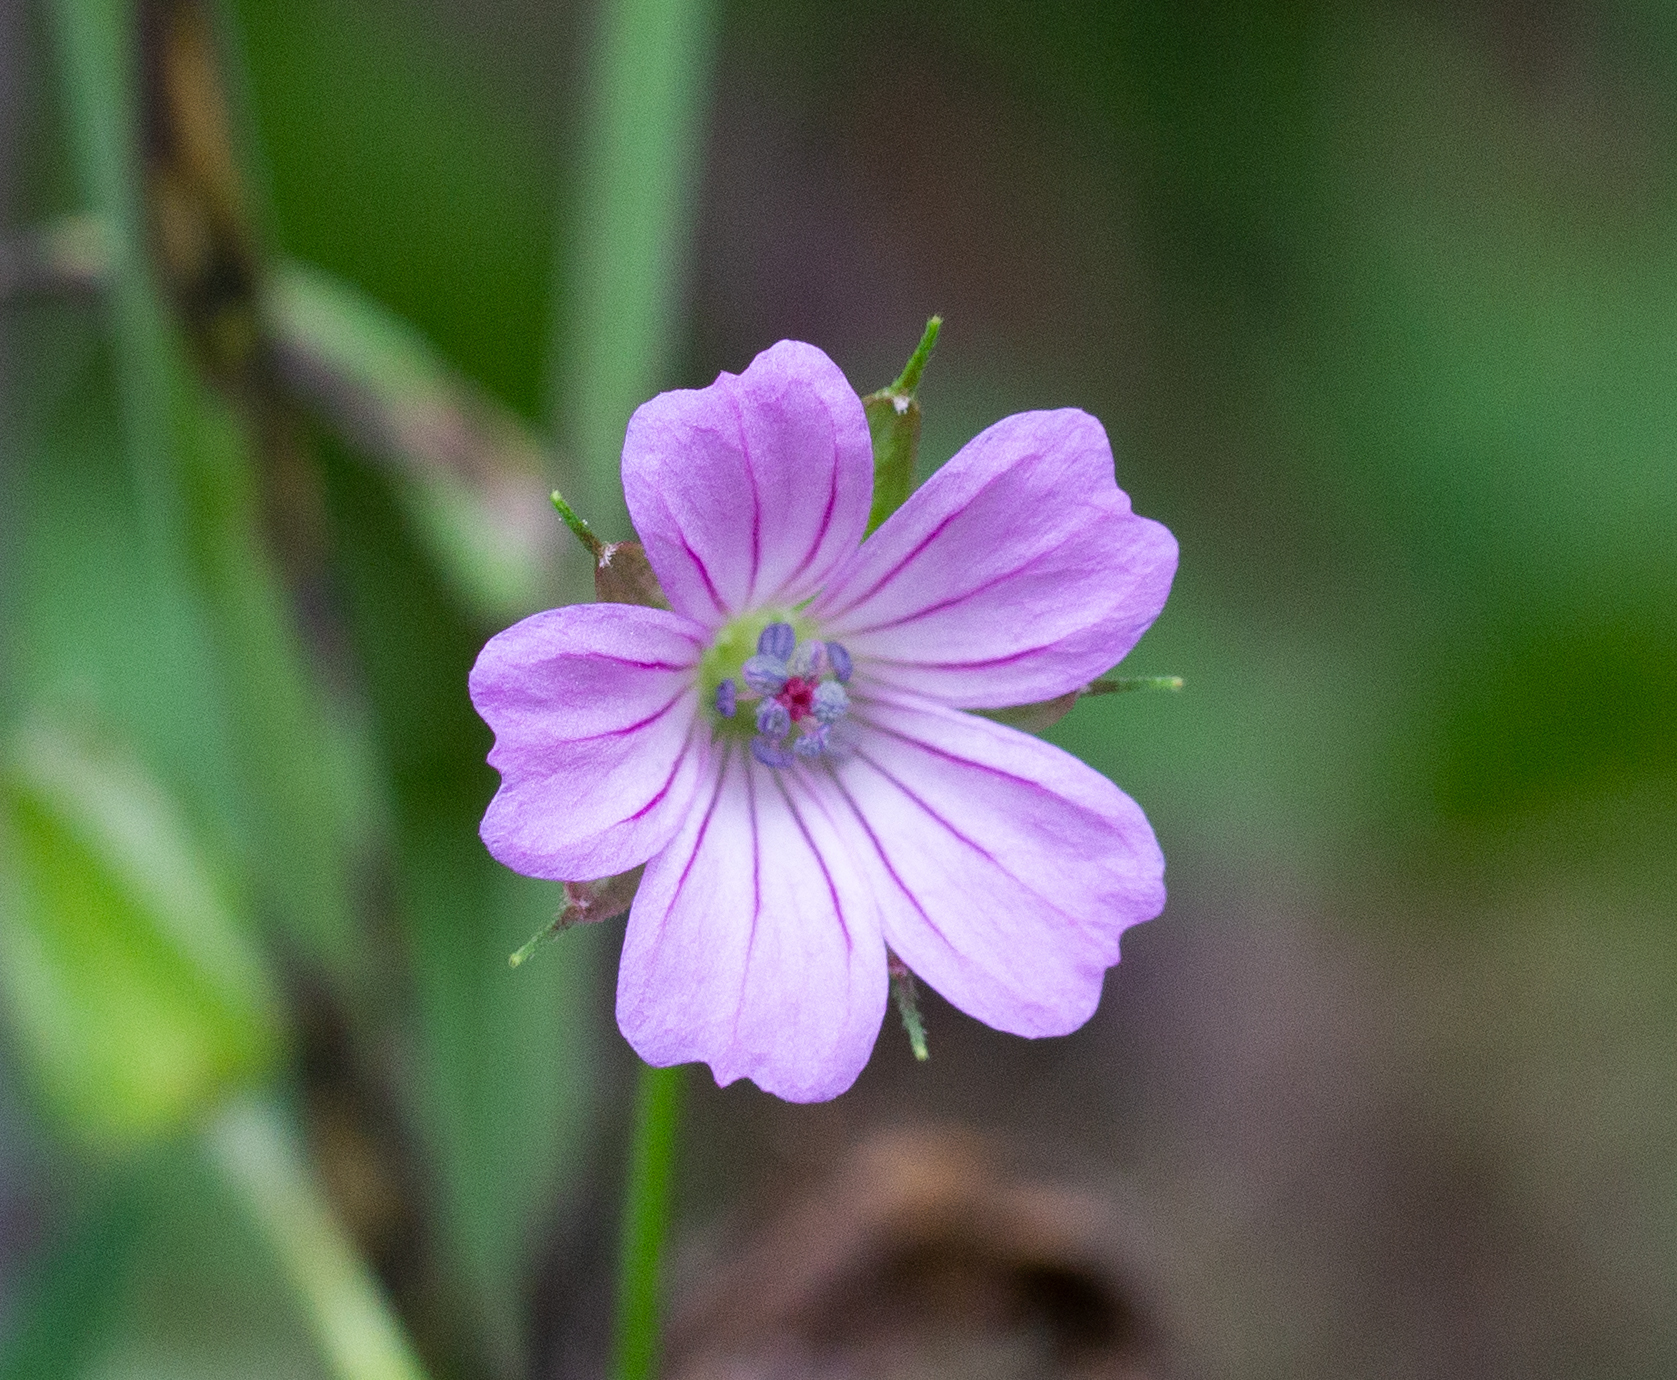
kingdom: Plantae
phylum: Tracheophyta
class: Magnoliopsida
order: Geraniales
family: Geraniaceae
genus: Geranium
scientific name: Geranium columbinum
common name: Long-stalked crane's-bill
